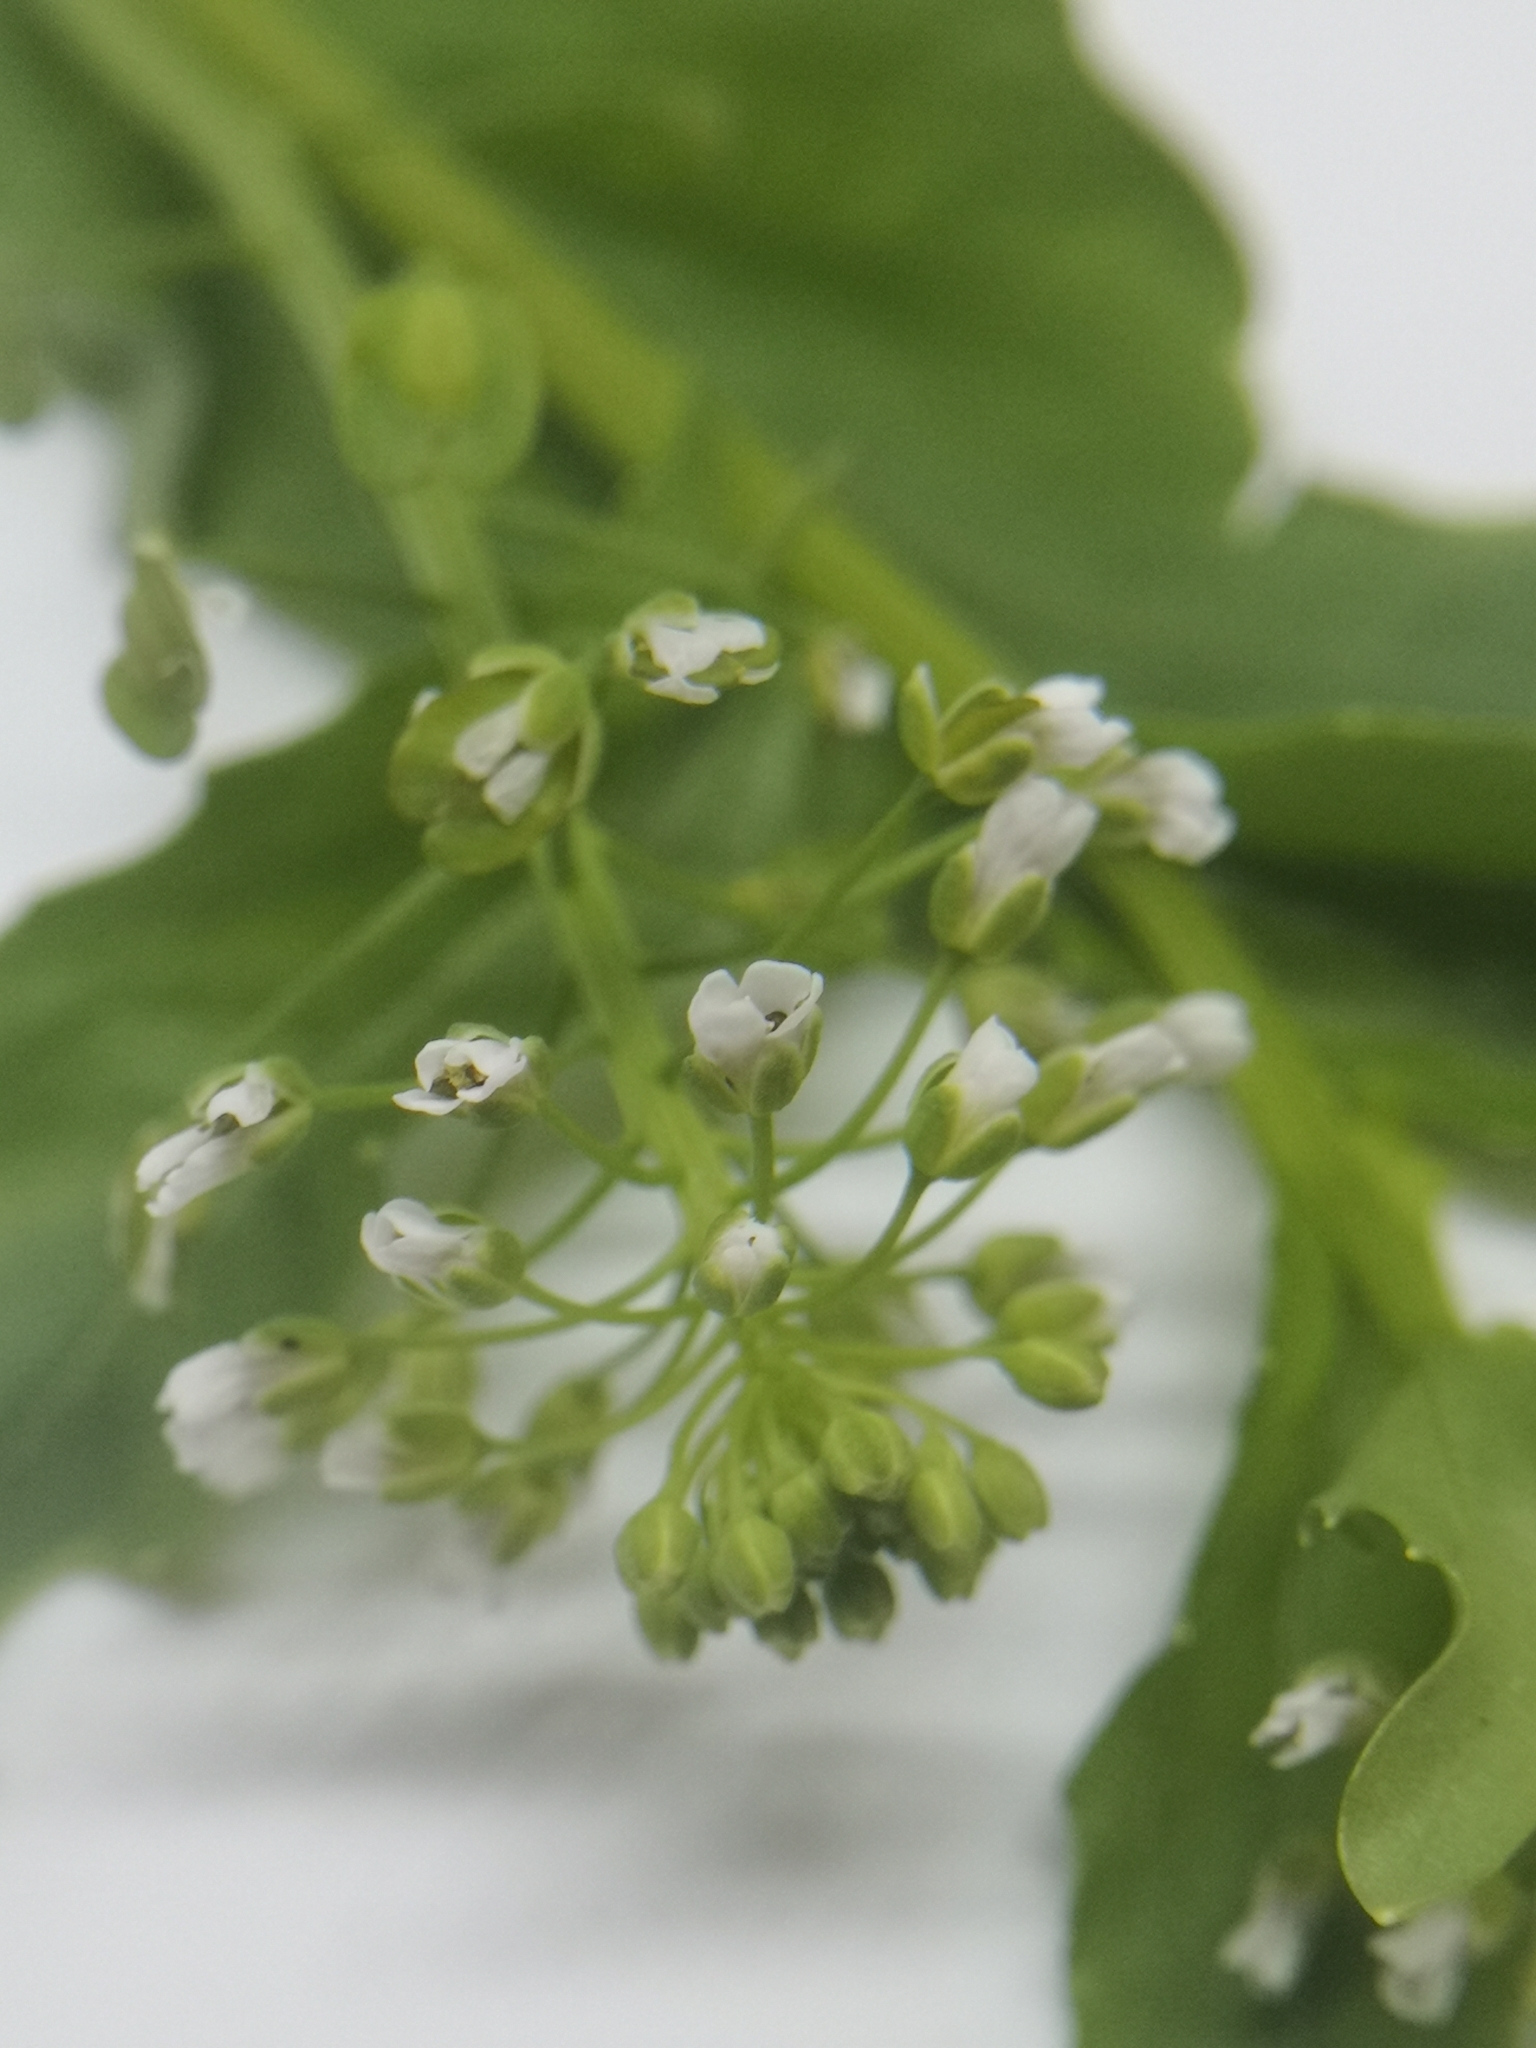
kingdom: Plantae
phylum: Tracheophyta
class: Magnoliopsida
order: Brassicales
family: Brassicaceae
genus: Thlaspi
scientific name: Thlaspi arvense
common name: Field pennycress
